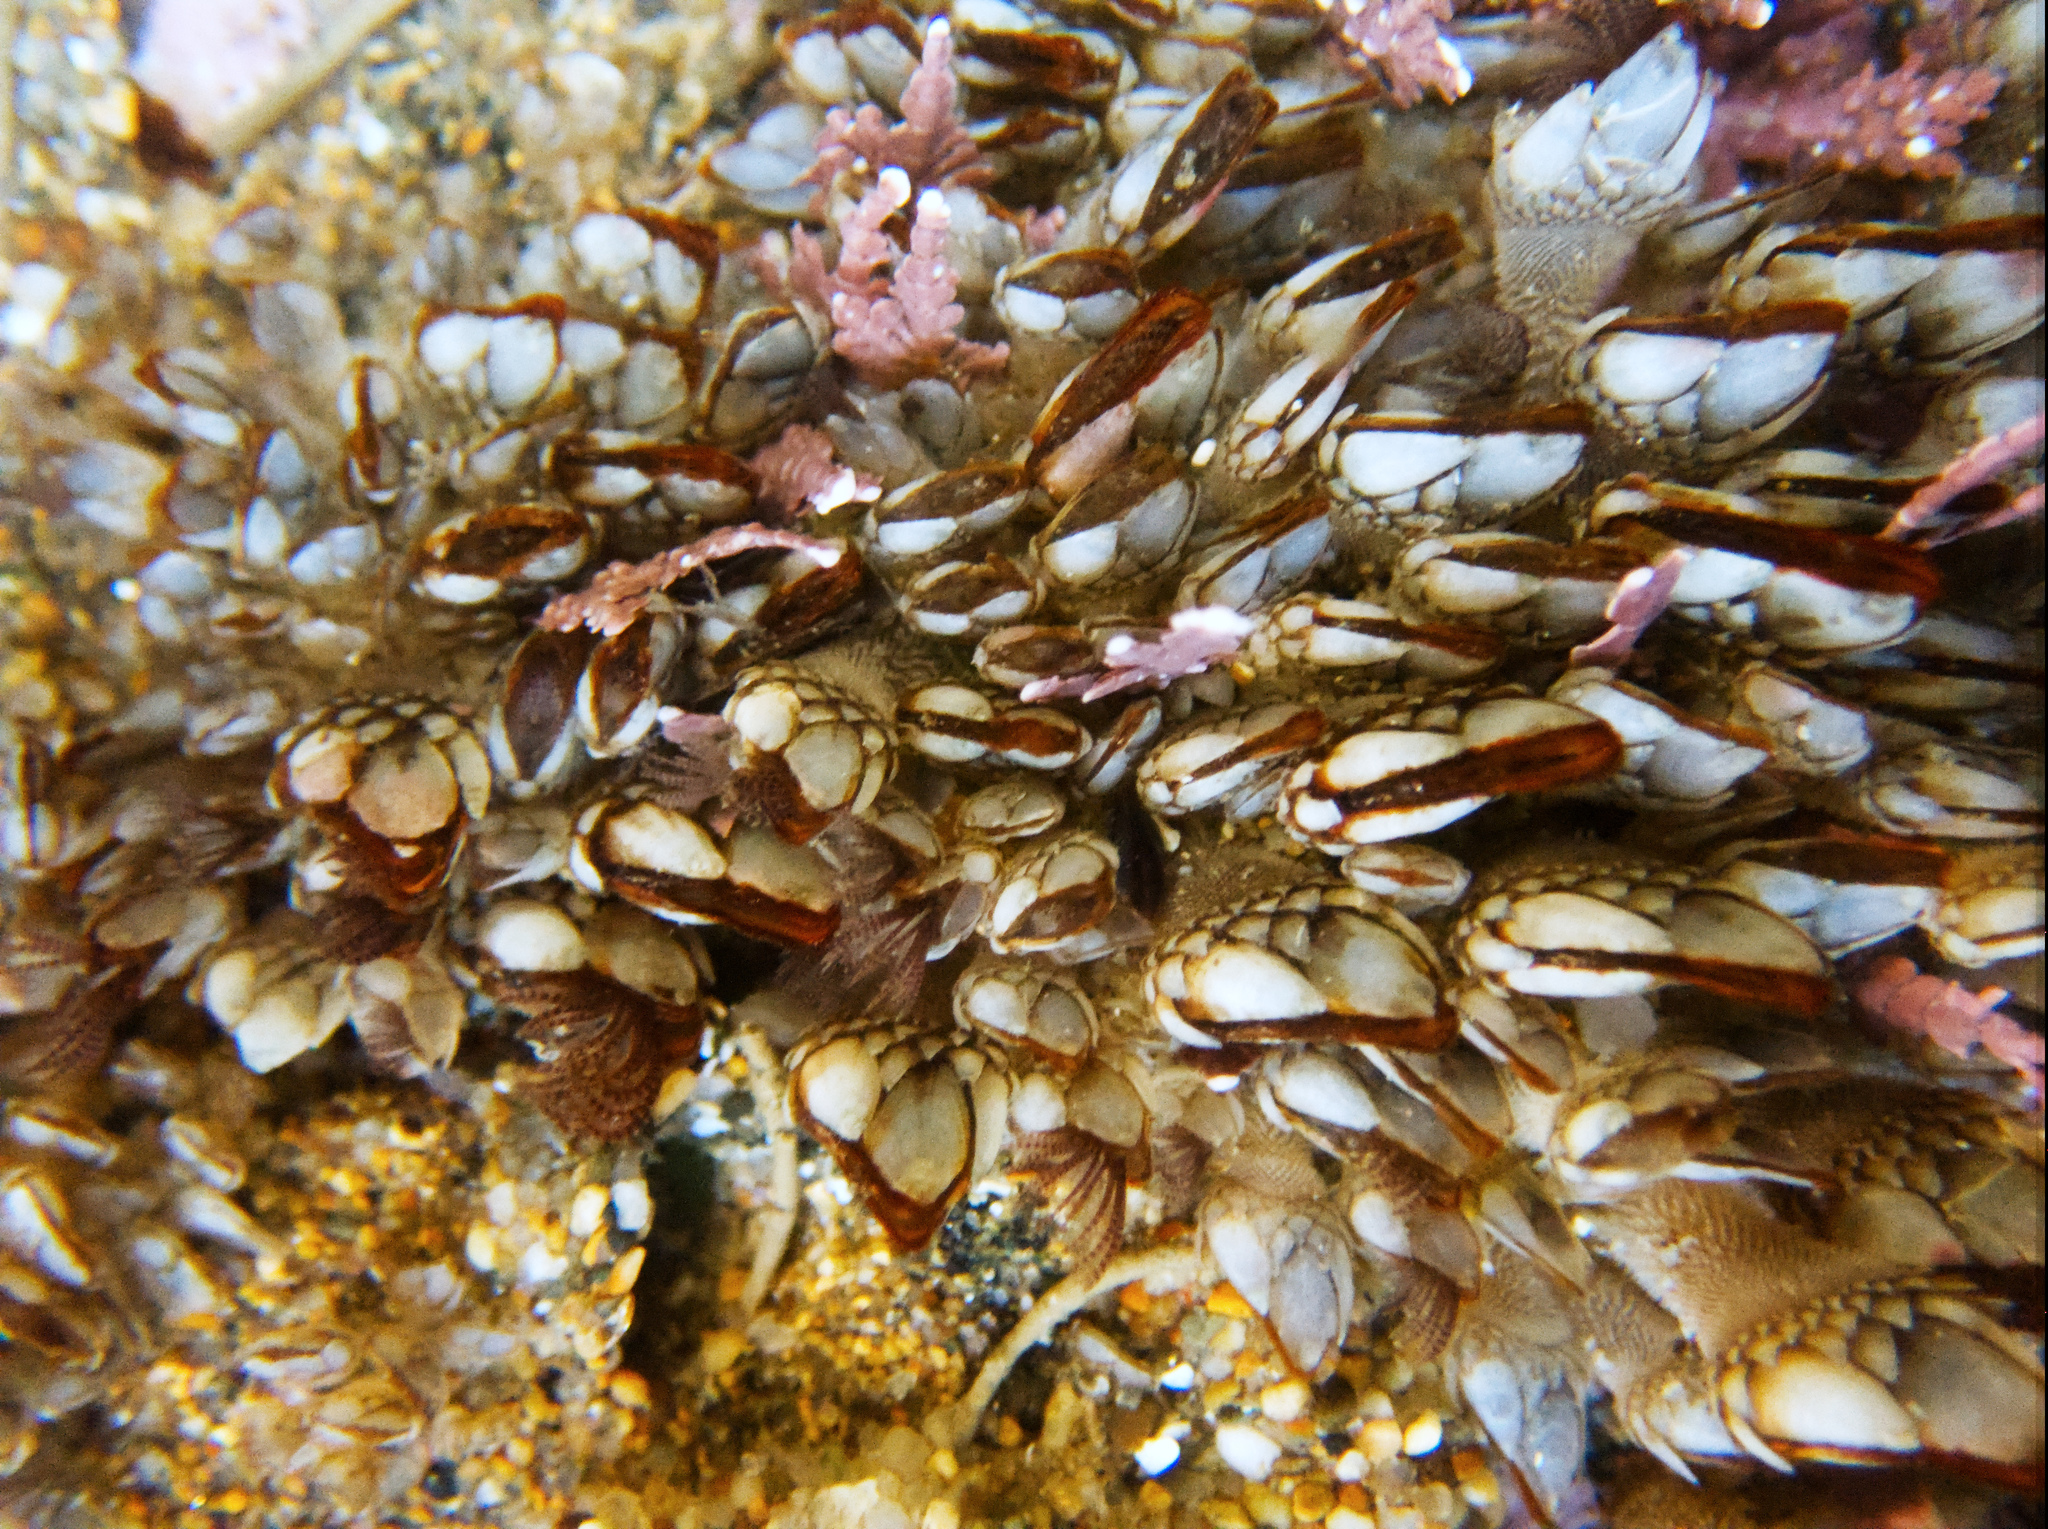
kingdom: Animalia
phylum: Arthropoda
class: Maxillopoda
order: Pedunculata
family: Pollicipedidae
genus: Pollicipes
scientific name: Pollicipes polymerus
